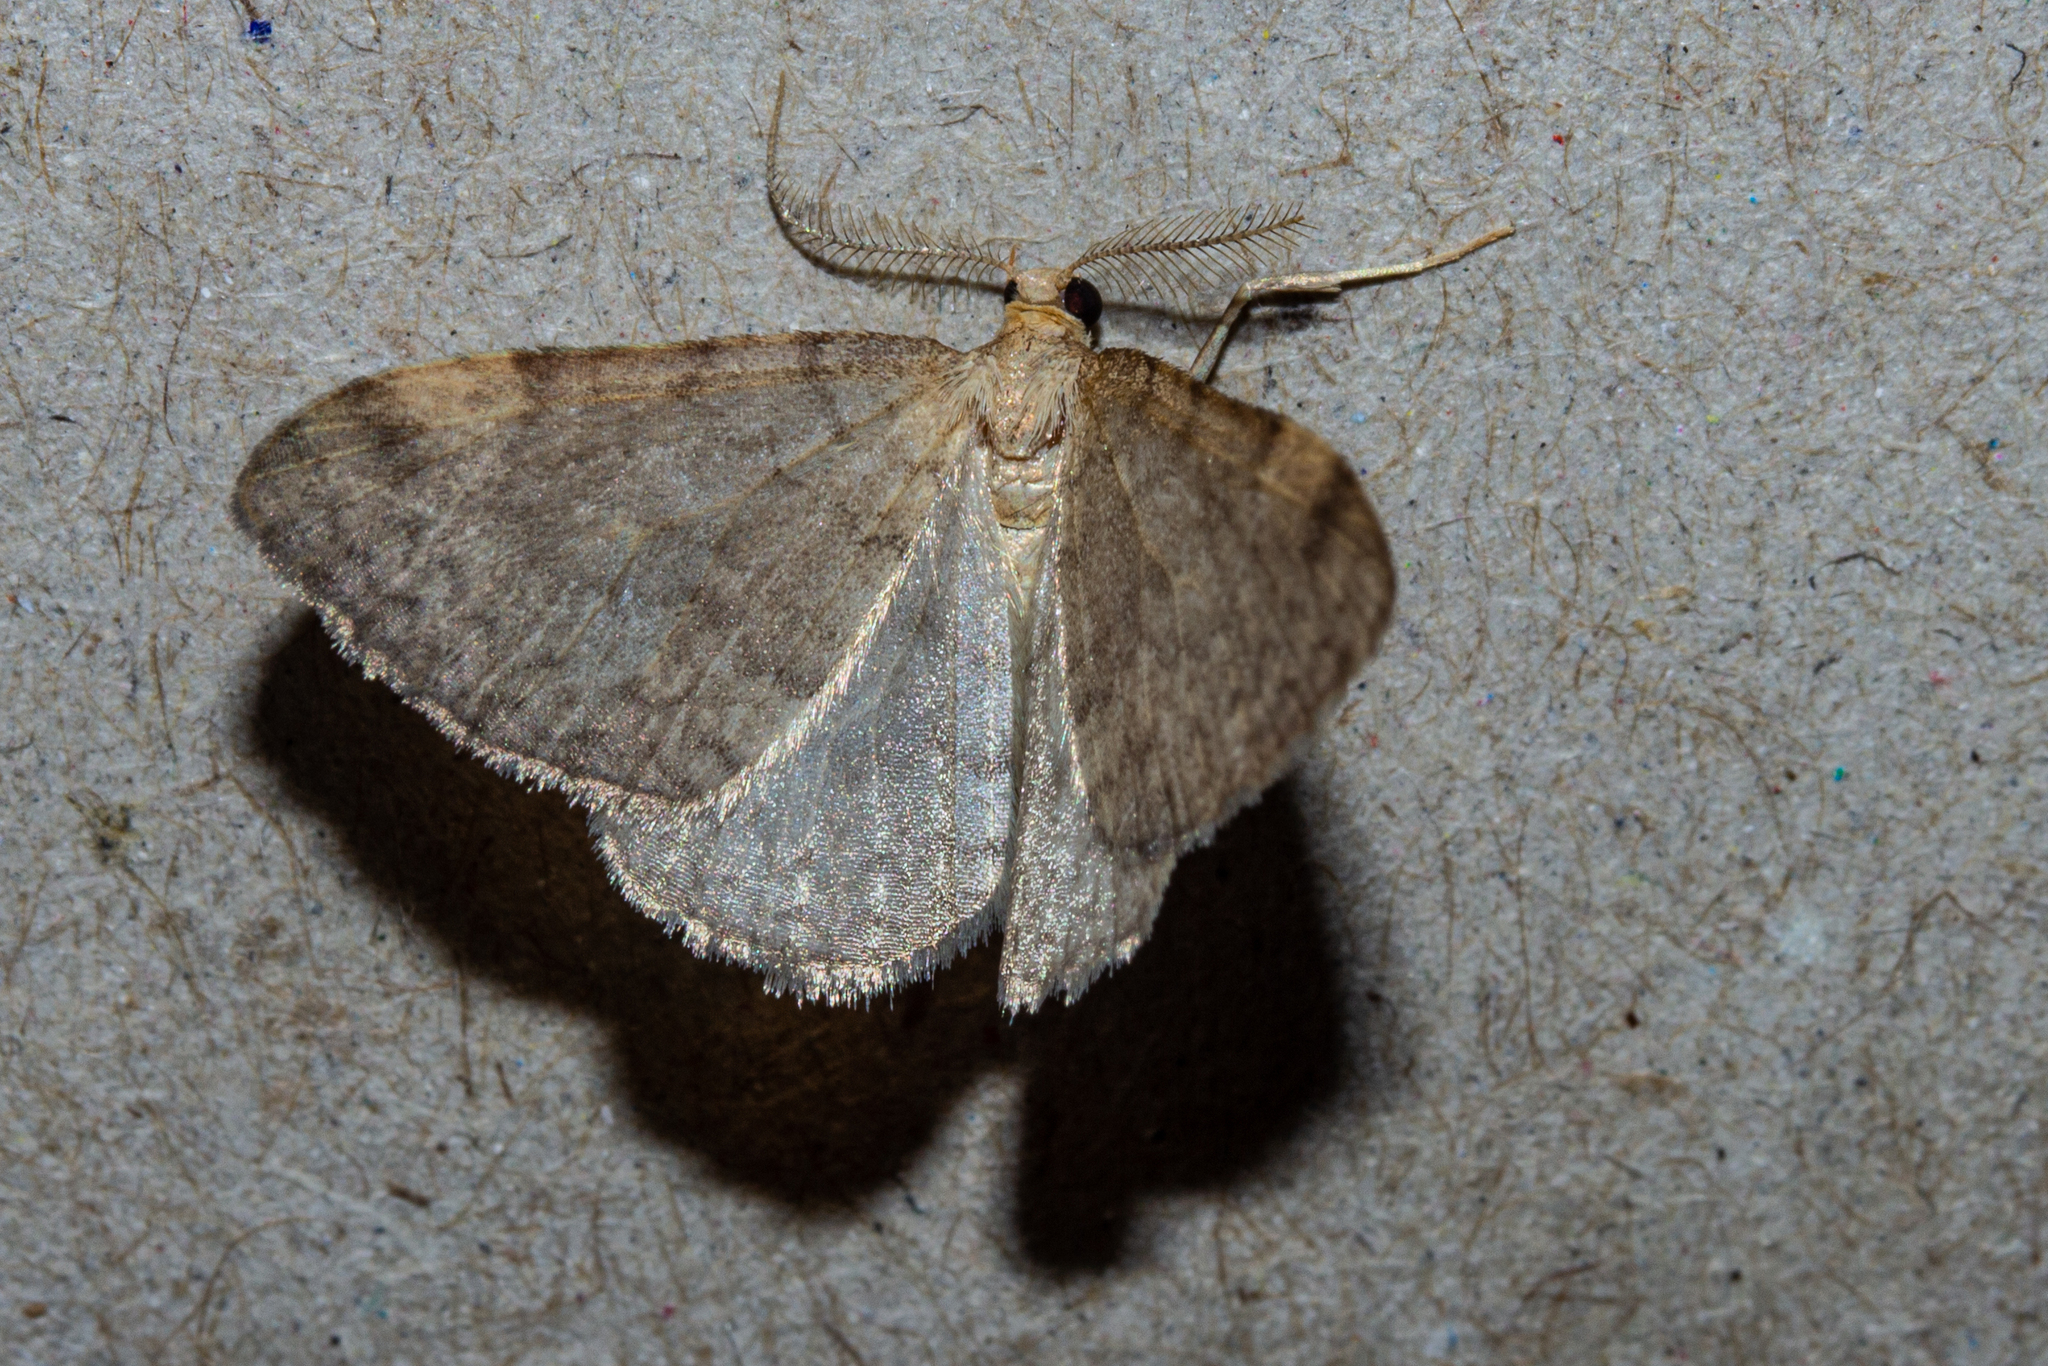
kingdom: Animalia
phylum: Arthropoda
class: Insecta
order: Lepidoptera
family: Geometridae
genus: Epiphryne
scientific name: Epiphryne undosata
